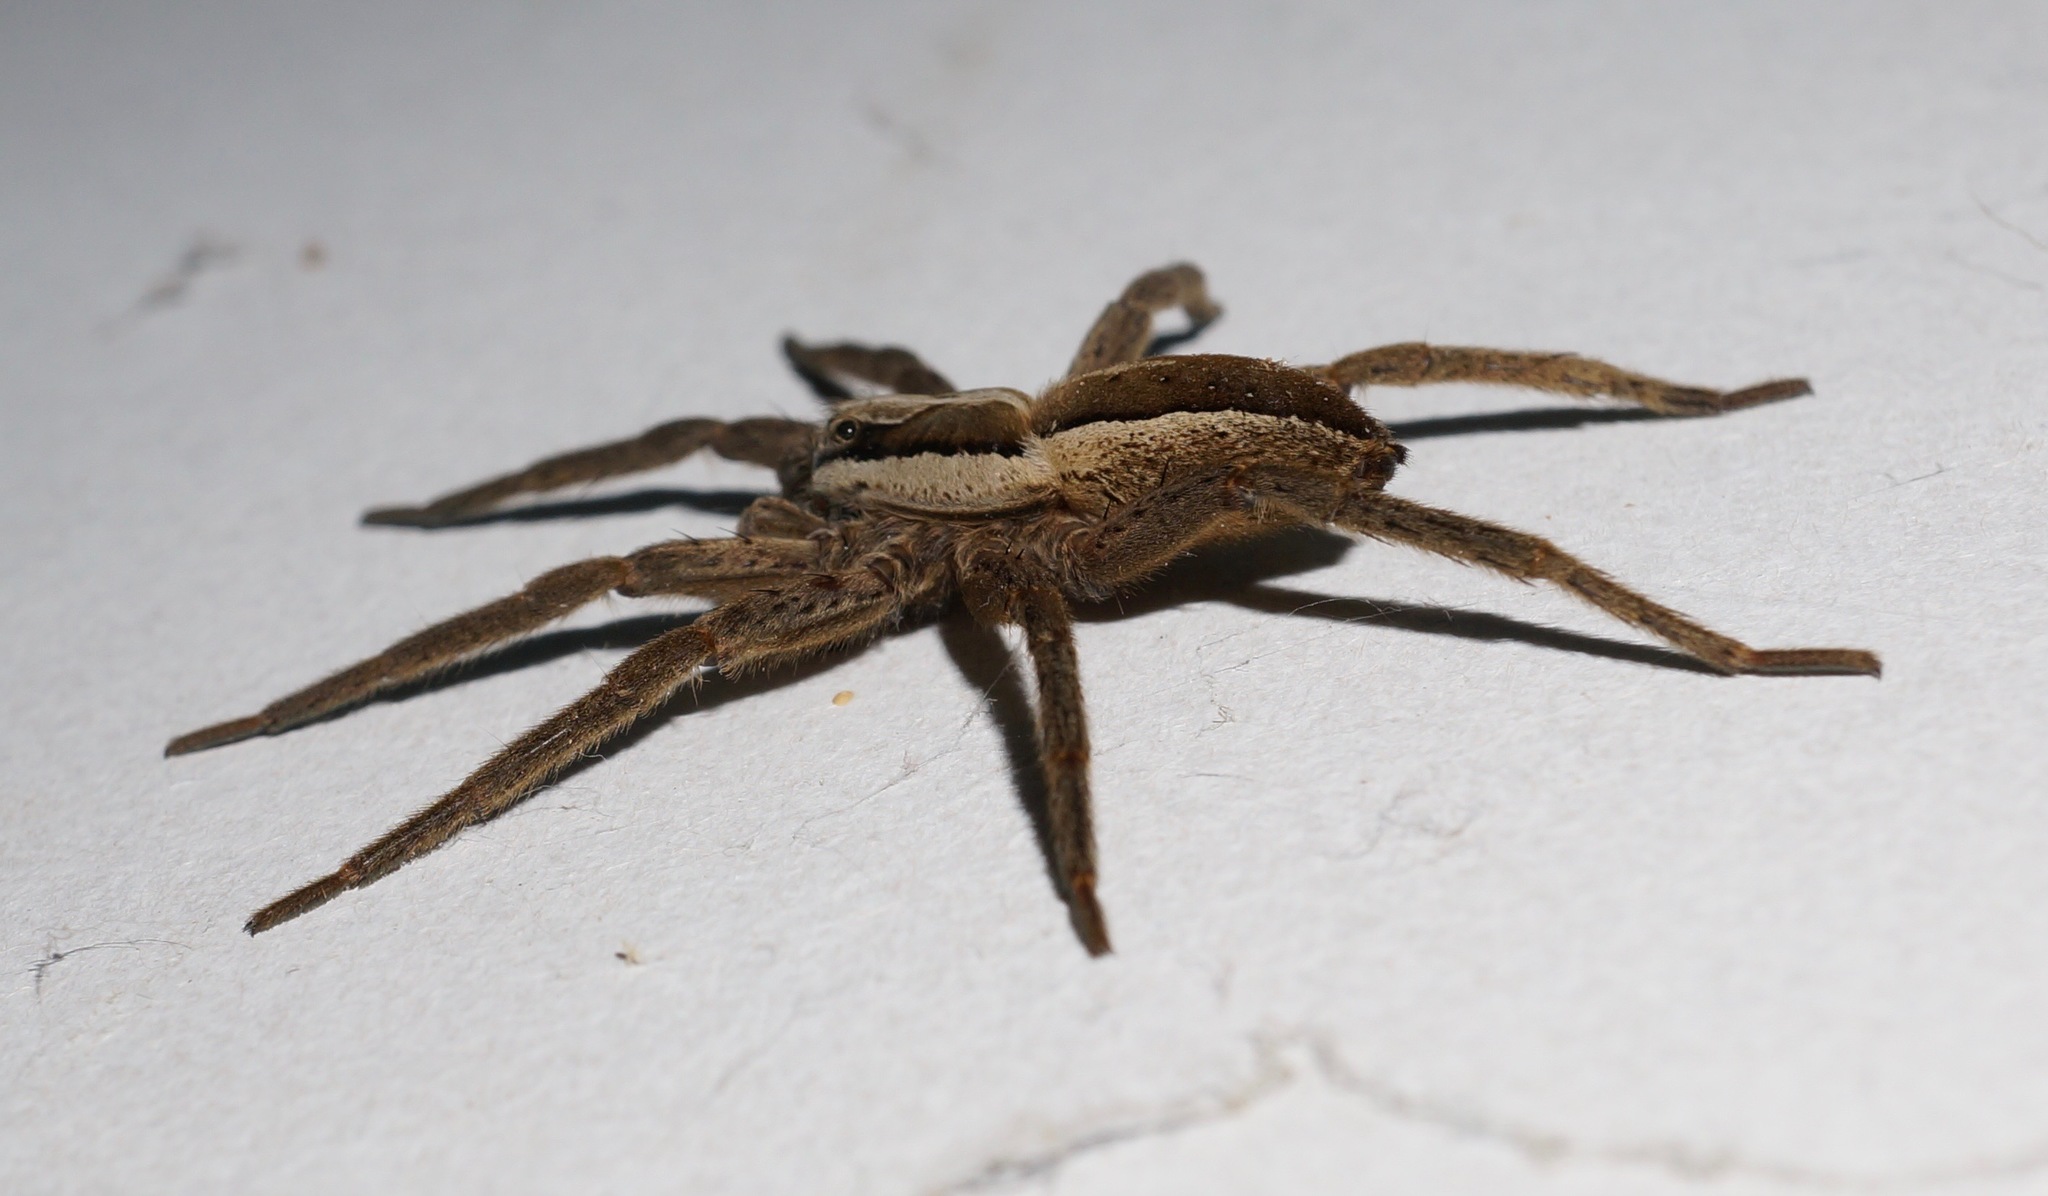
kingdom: Animalia
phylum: Arthropoda
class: Arachnida
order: Araneae
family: Pisauridae
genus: Dolomedes
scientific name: Dolomedes minor
